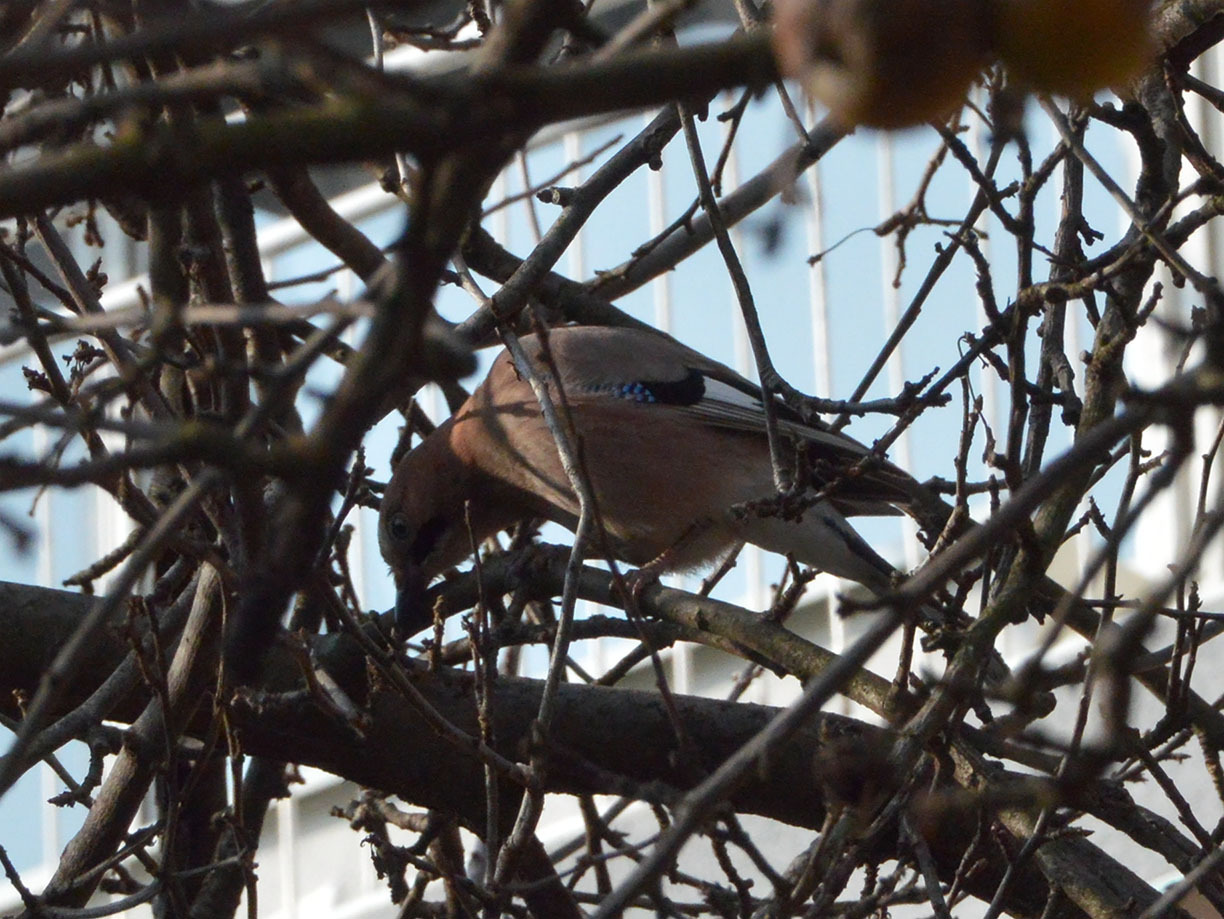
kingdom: Animalia
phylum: Chordata
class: Aves
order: Passeriformes
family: Corvidae
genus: Garrulus
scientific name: Garrulus glandarius
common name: Eurasian jay
